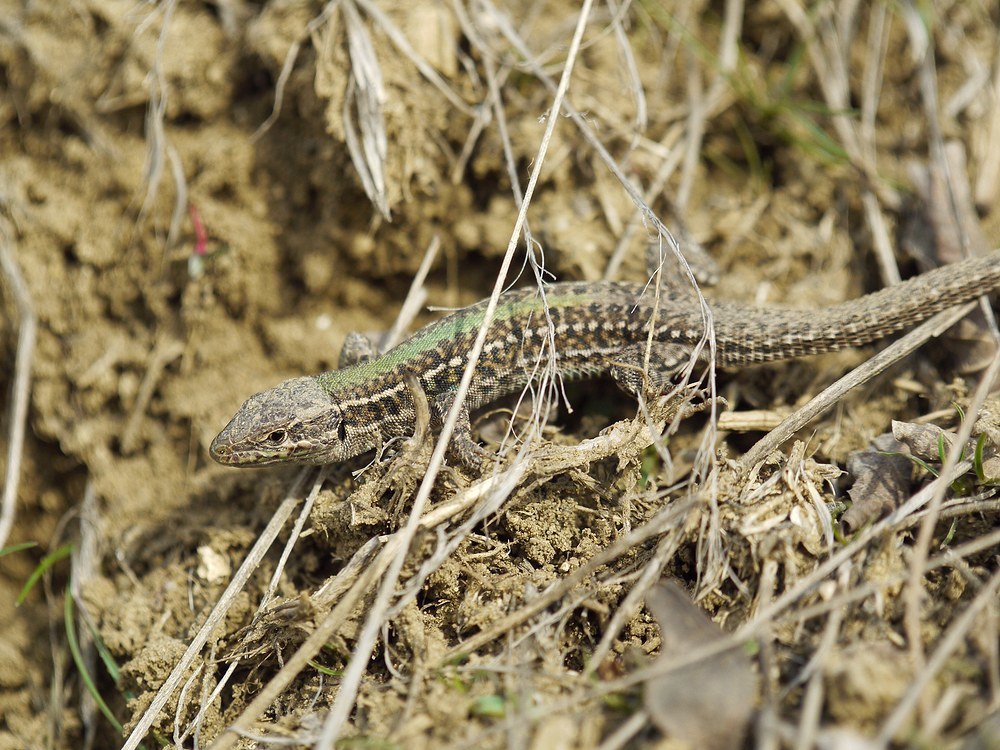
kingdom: Animalia
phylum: Chordata
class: Squamata
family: Lacertidae
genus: Podarcis
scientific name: Podarcis tauricus
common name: Balkan wall lizard
